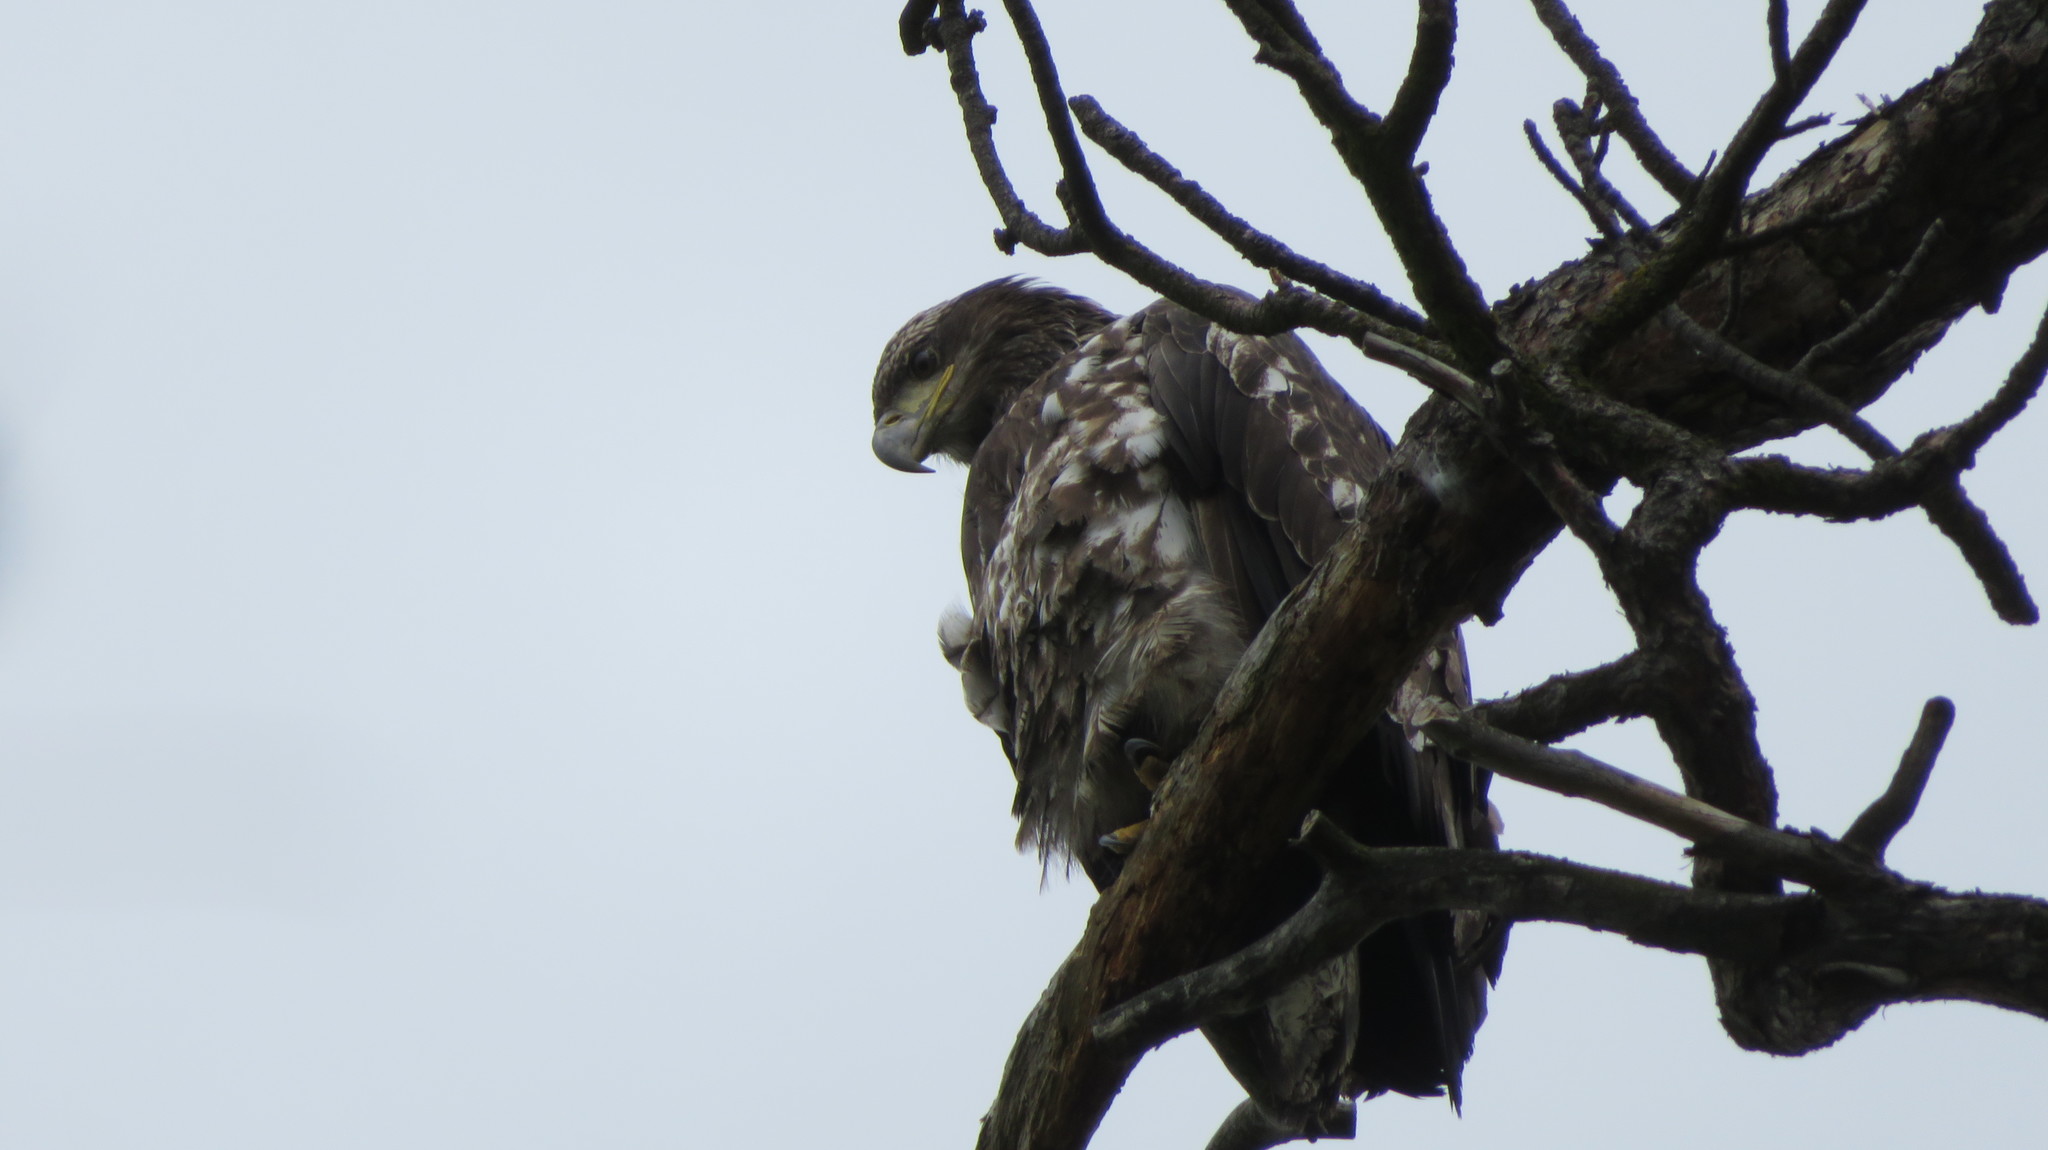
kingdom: Animalia
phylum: Chordata
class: Aves
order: Accipitriformes
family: Accipitridae
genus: Haliaeetus
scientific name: Haliaeetus leucocephalus
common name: Bald eagle
